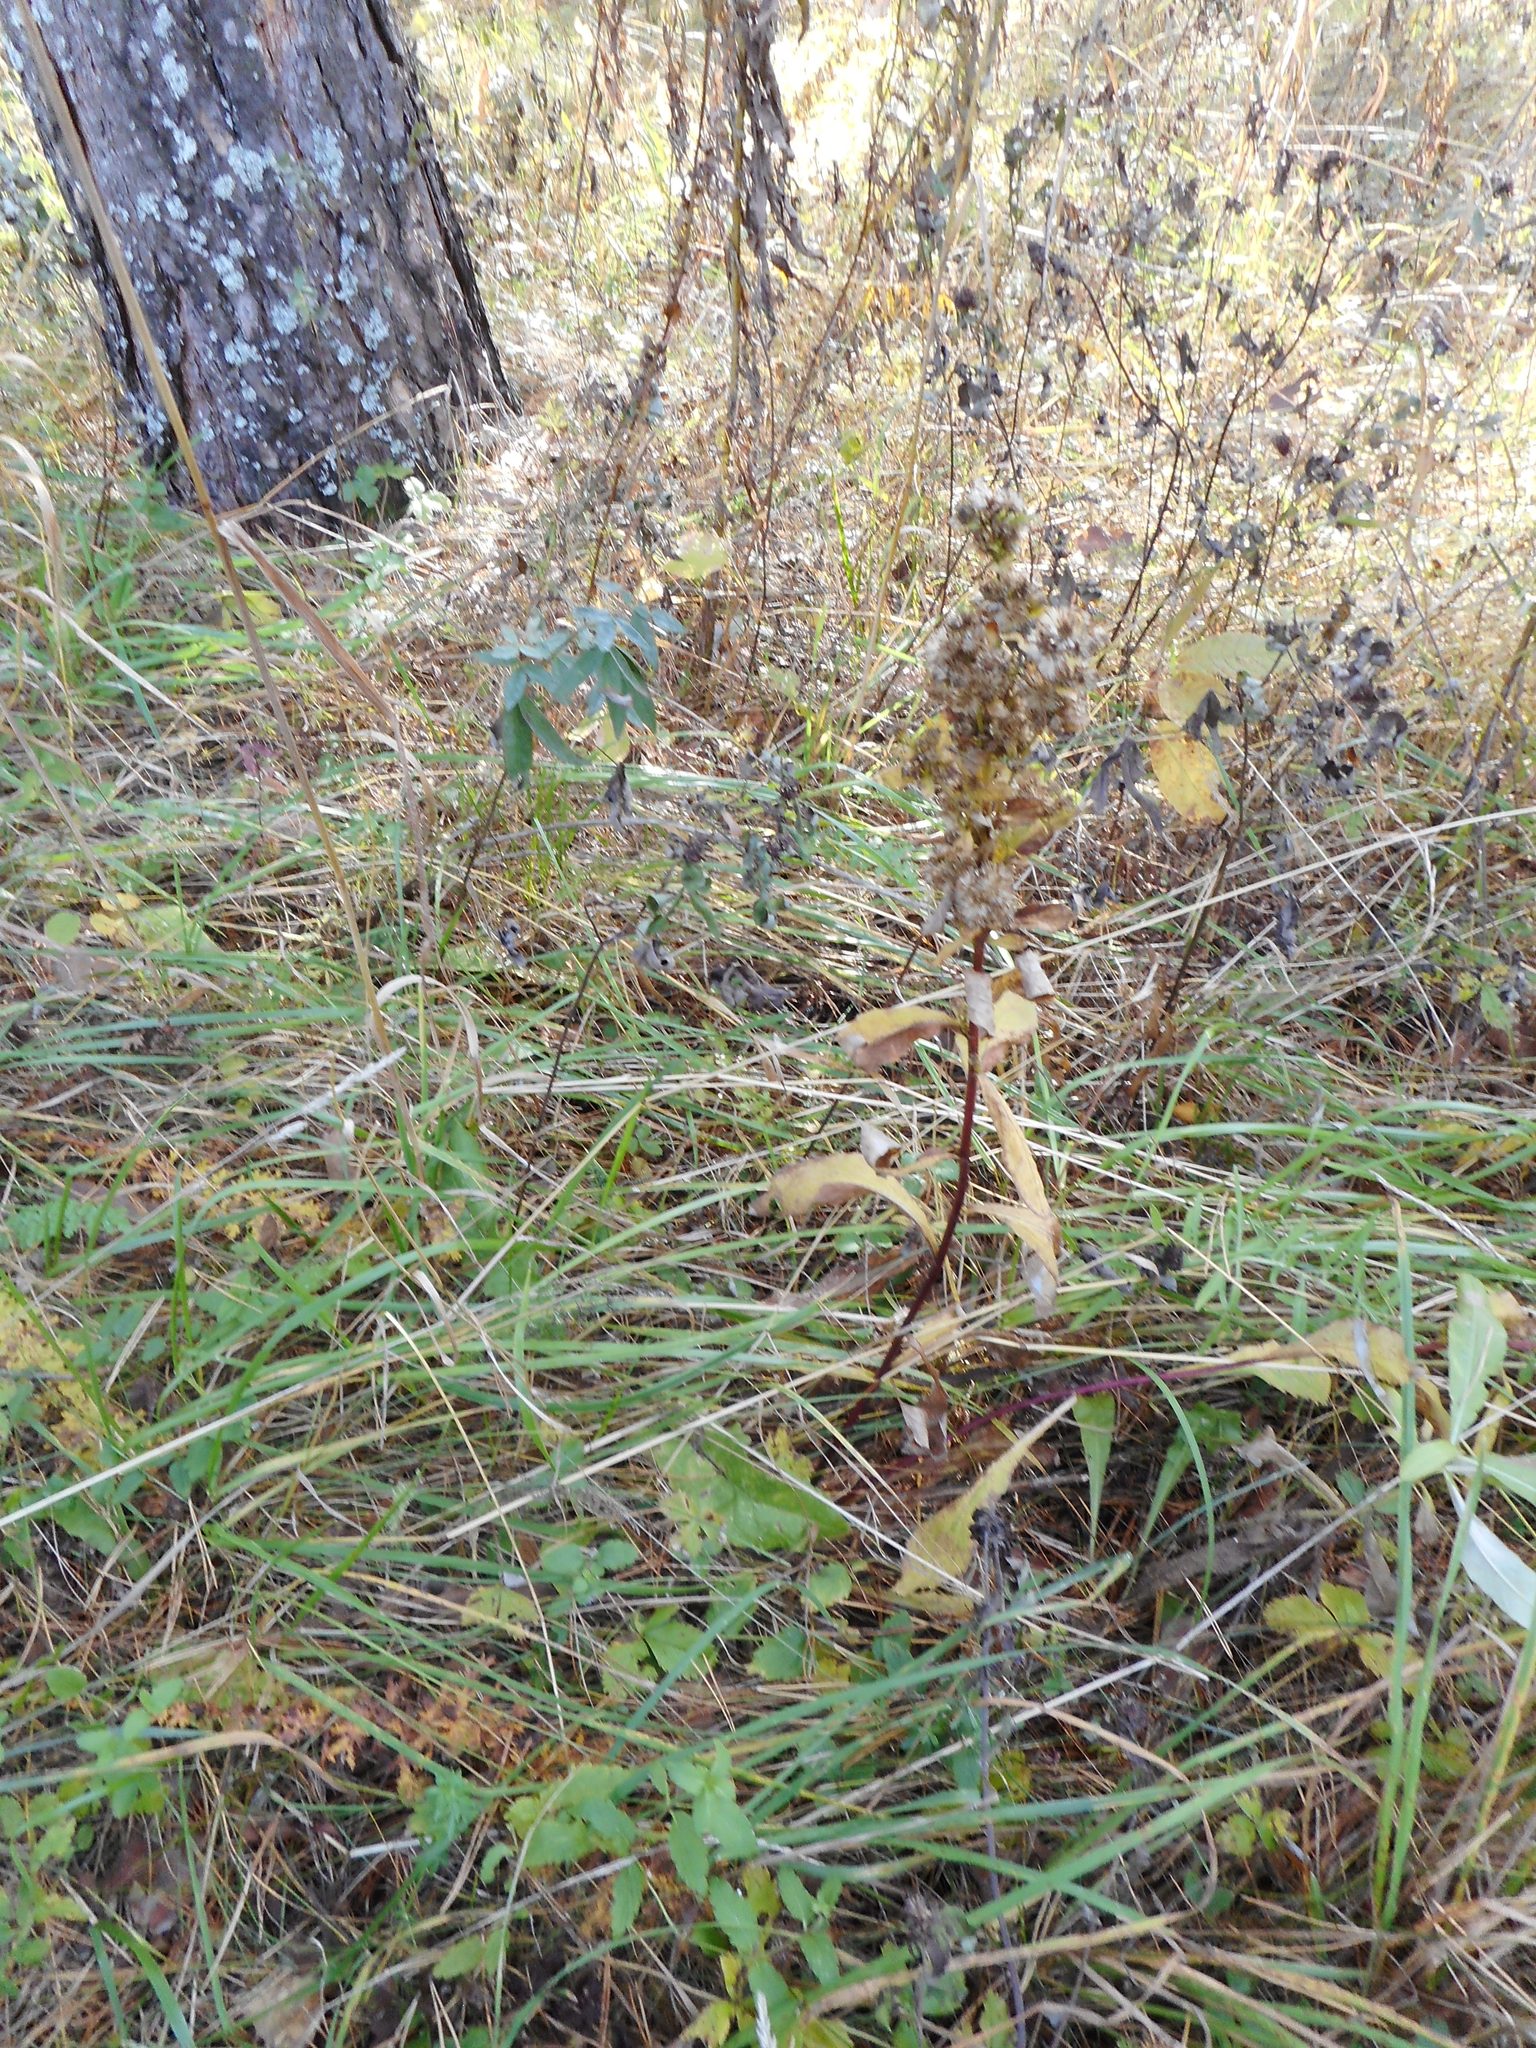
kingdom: Plantae
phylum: Tracheophyta
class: Magnoliopsida
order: Asterales
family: Asteraceae
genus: Solidago
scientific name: Solidago virgaurea
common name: Goldenrod
